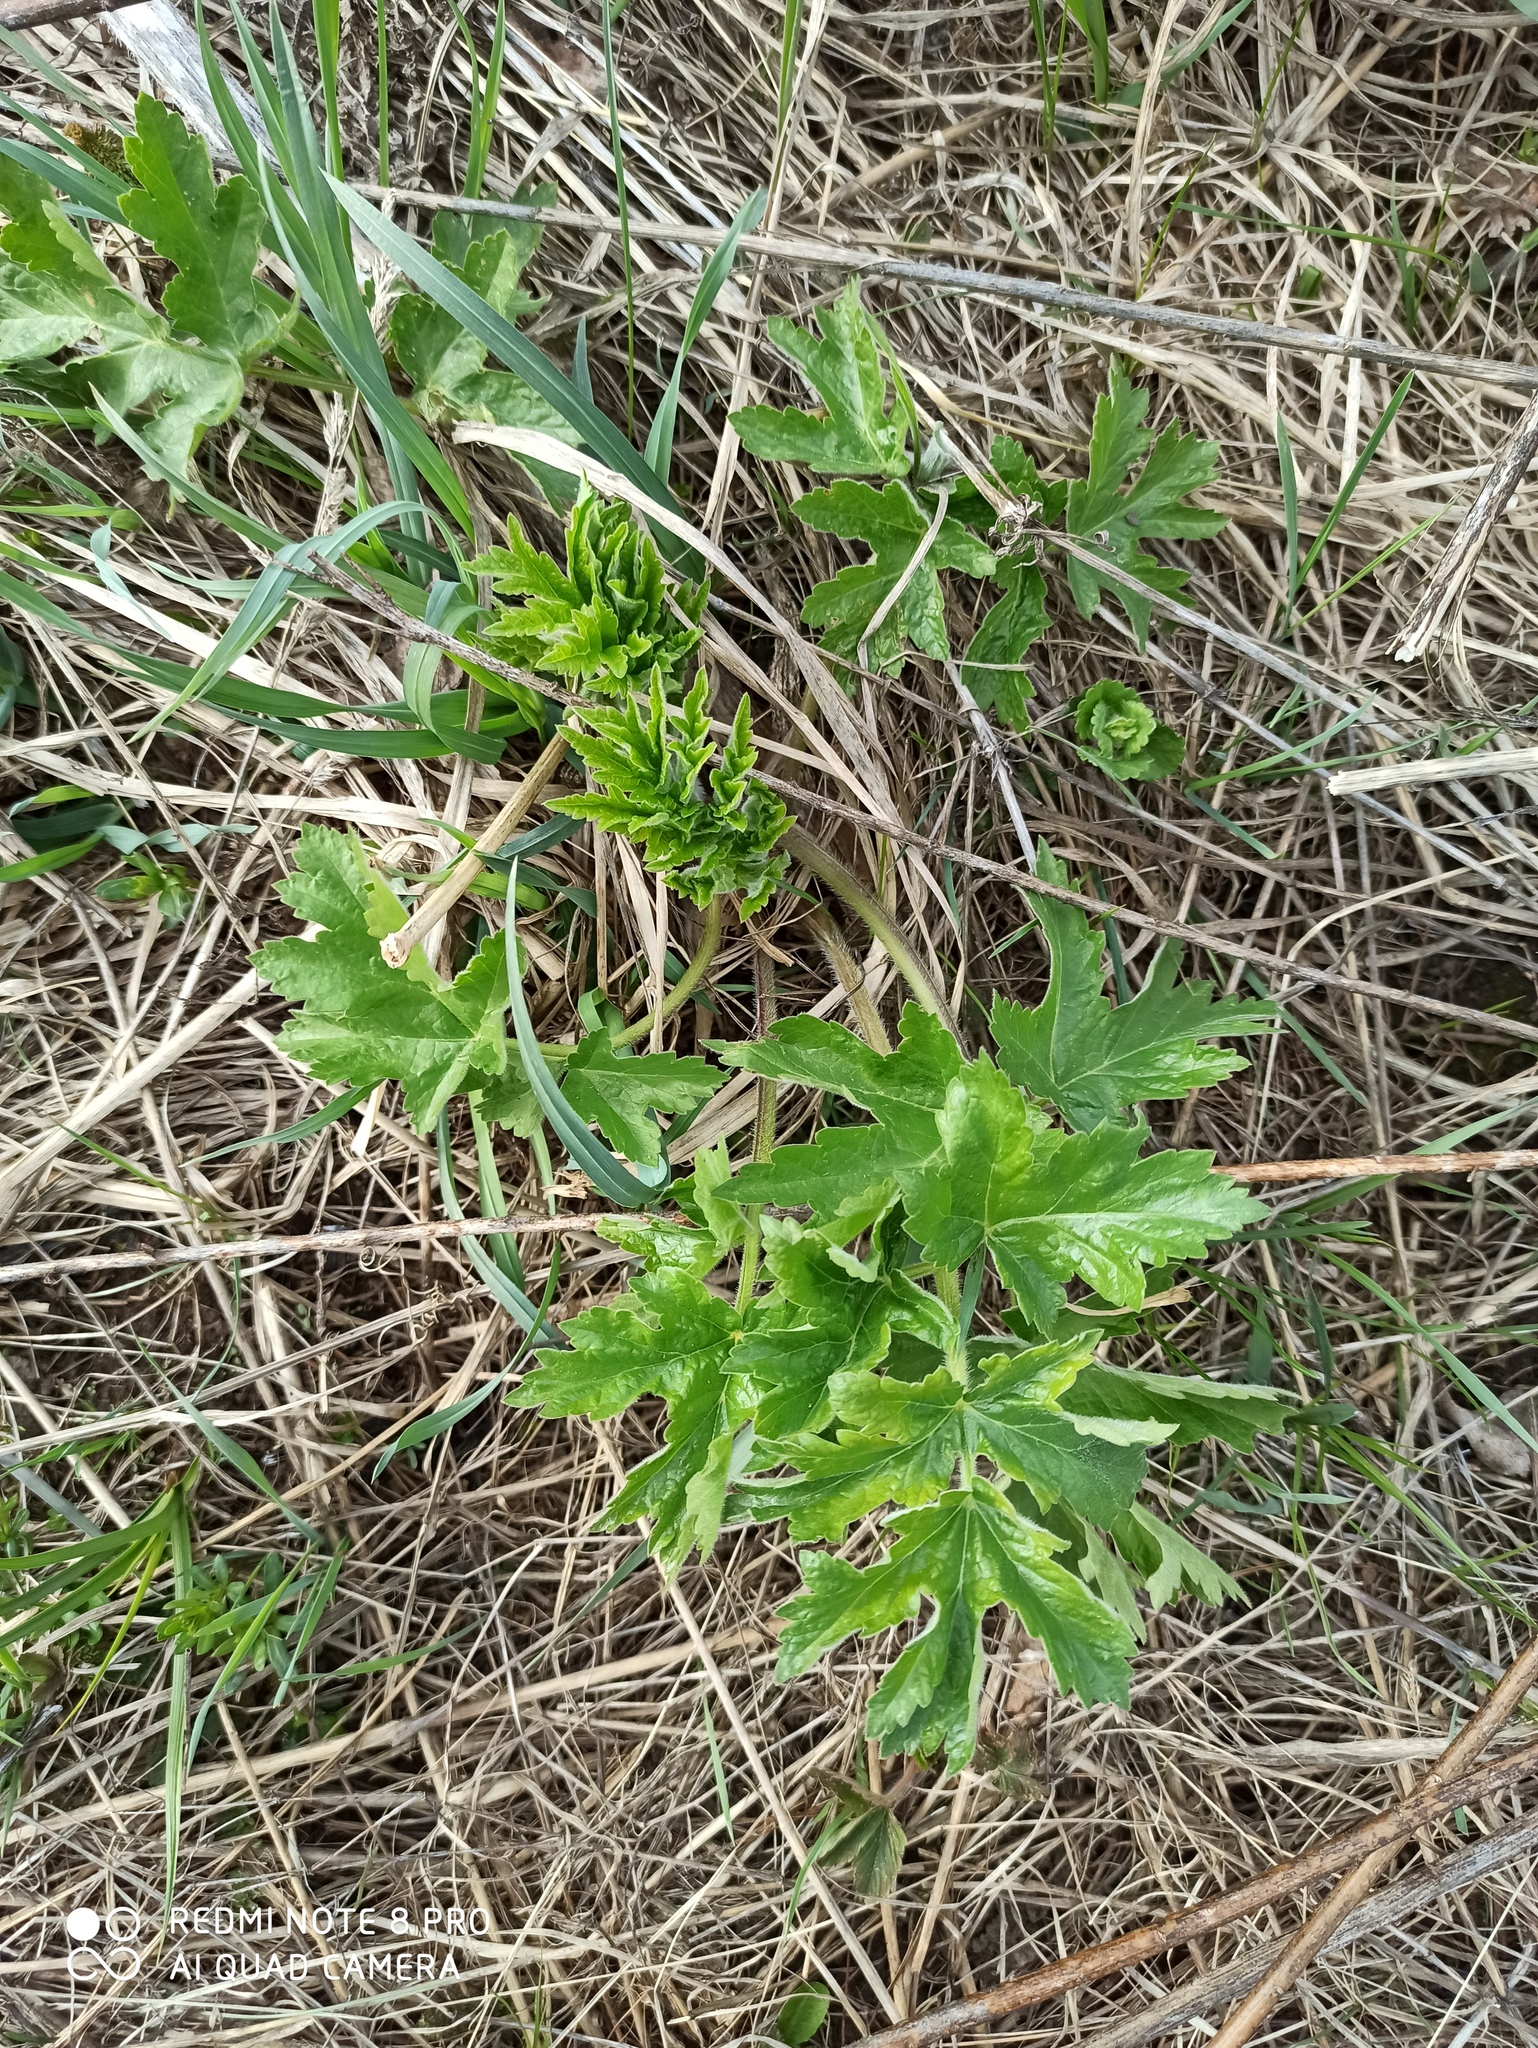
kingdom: Plantae
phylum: Tracheophyta
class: Magnoliopsida
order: Apiales
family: Apiaceae
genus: Heracleum
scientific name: Heracleum sphondylium
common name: Hogweed
